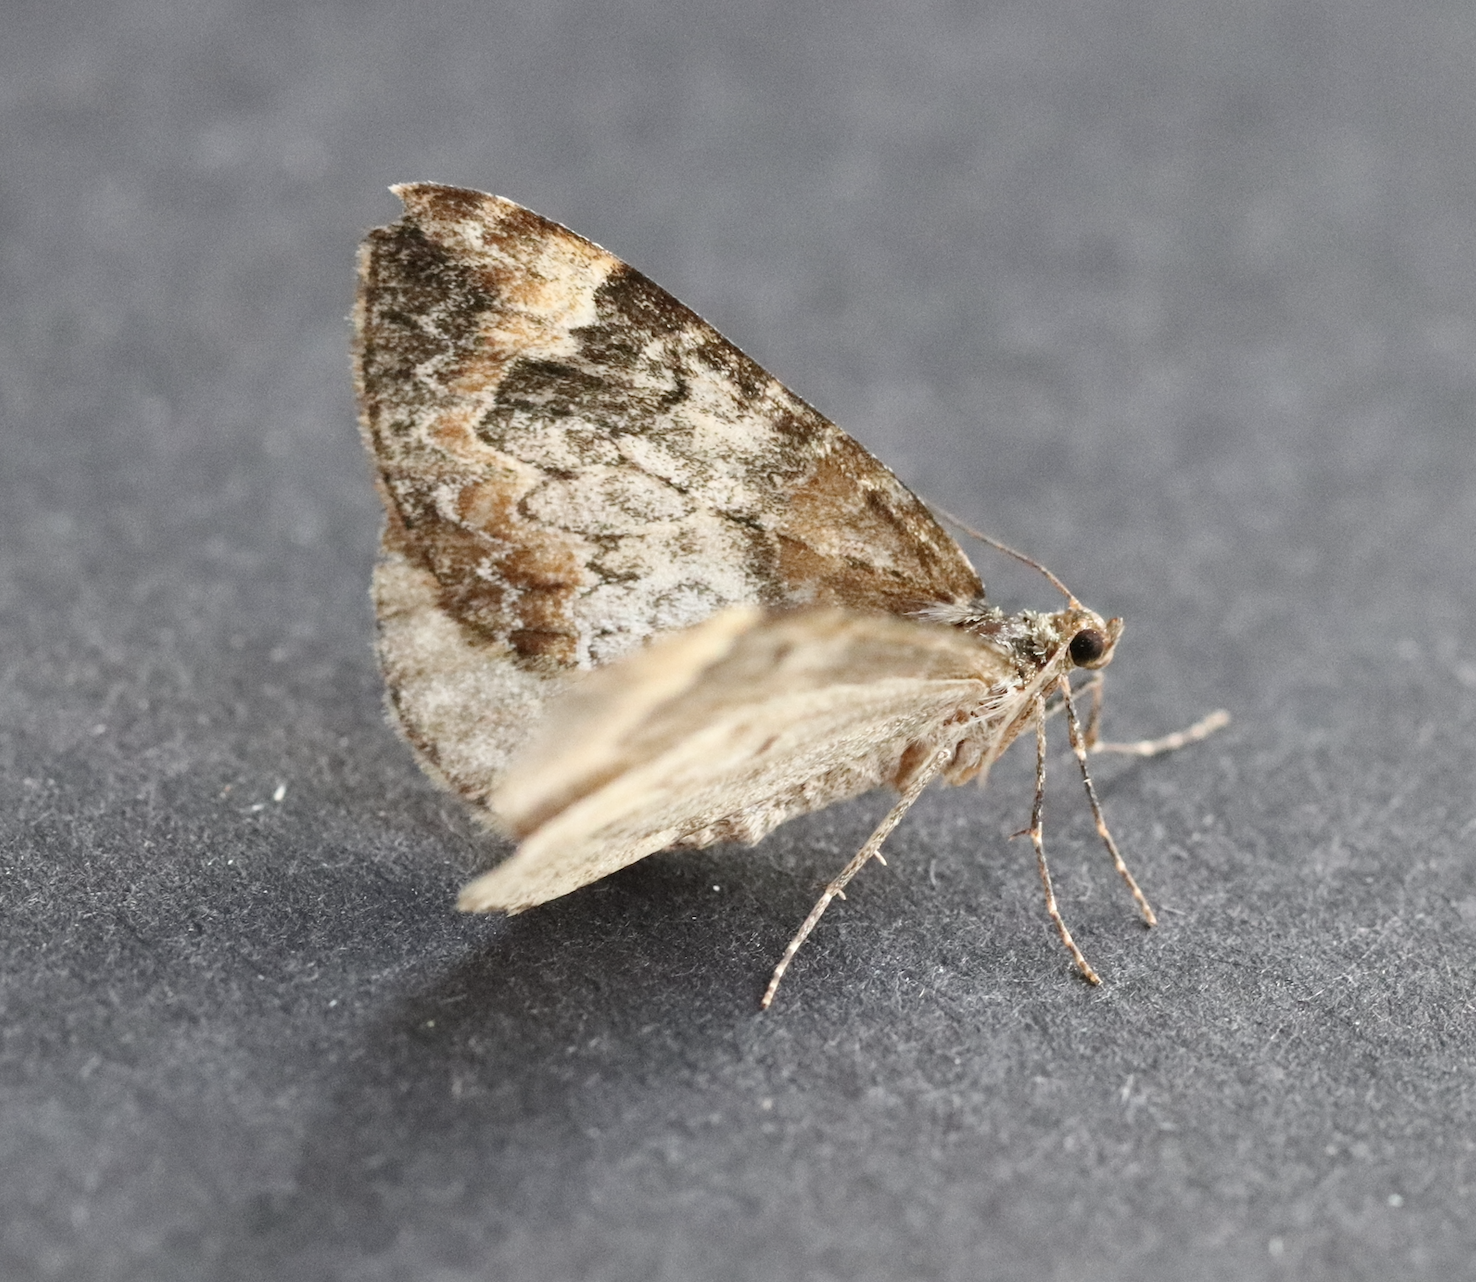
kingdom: Animalia
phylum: Arthropoda
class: Insecta
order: Lepidoptera
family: Geometridae
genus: Dysstroma
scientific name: Dysstroma truncata
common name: Common marbled carpet
